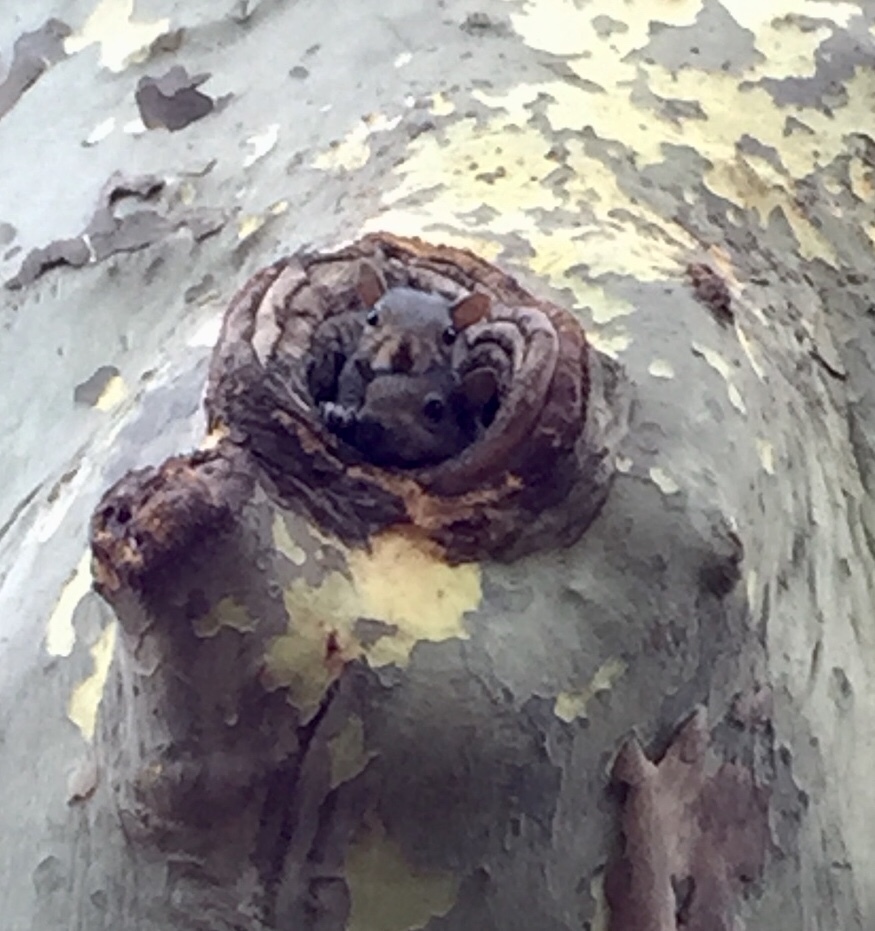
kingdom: Animalia
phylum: Chordata
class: Mammalia
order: Rodentia
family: Sciuridae
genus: Sciurus
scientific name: Sciurus carolinensis
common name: Eastern gray squirrel
